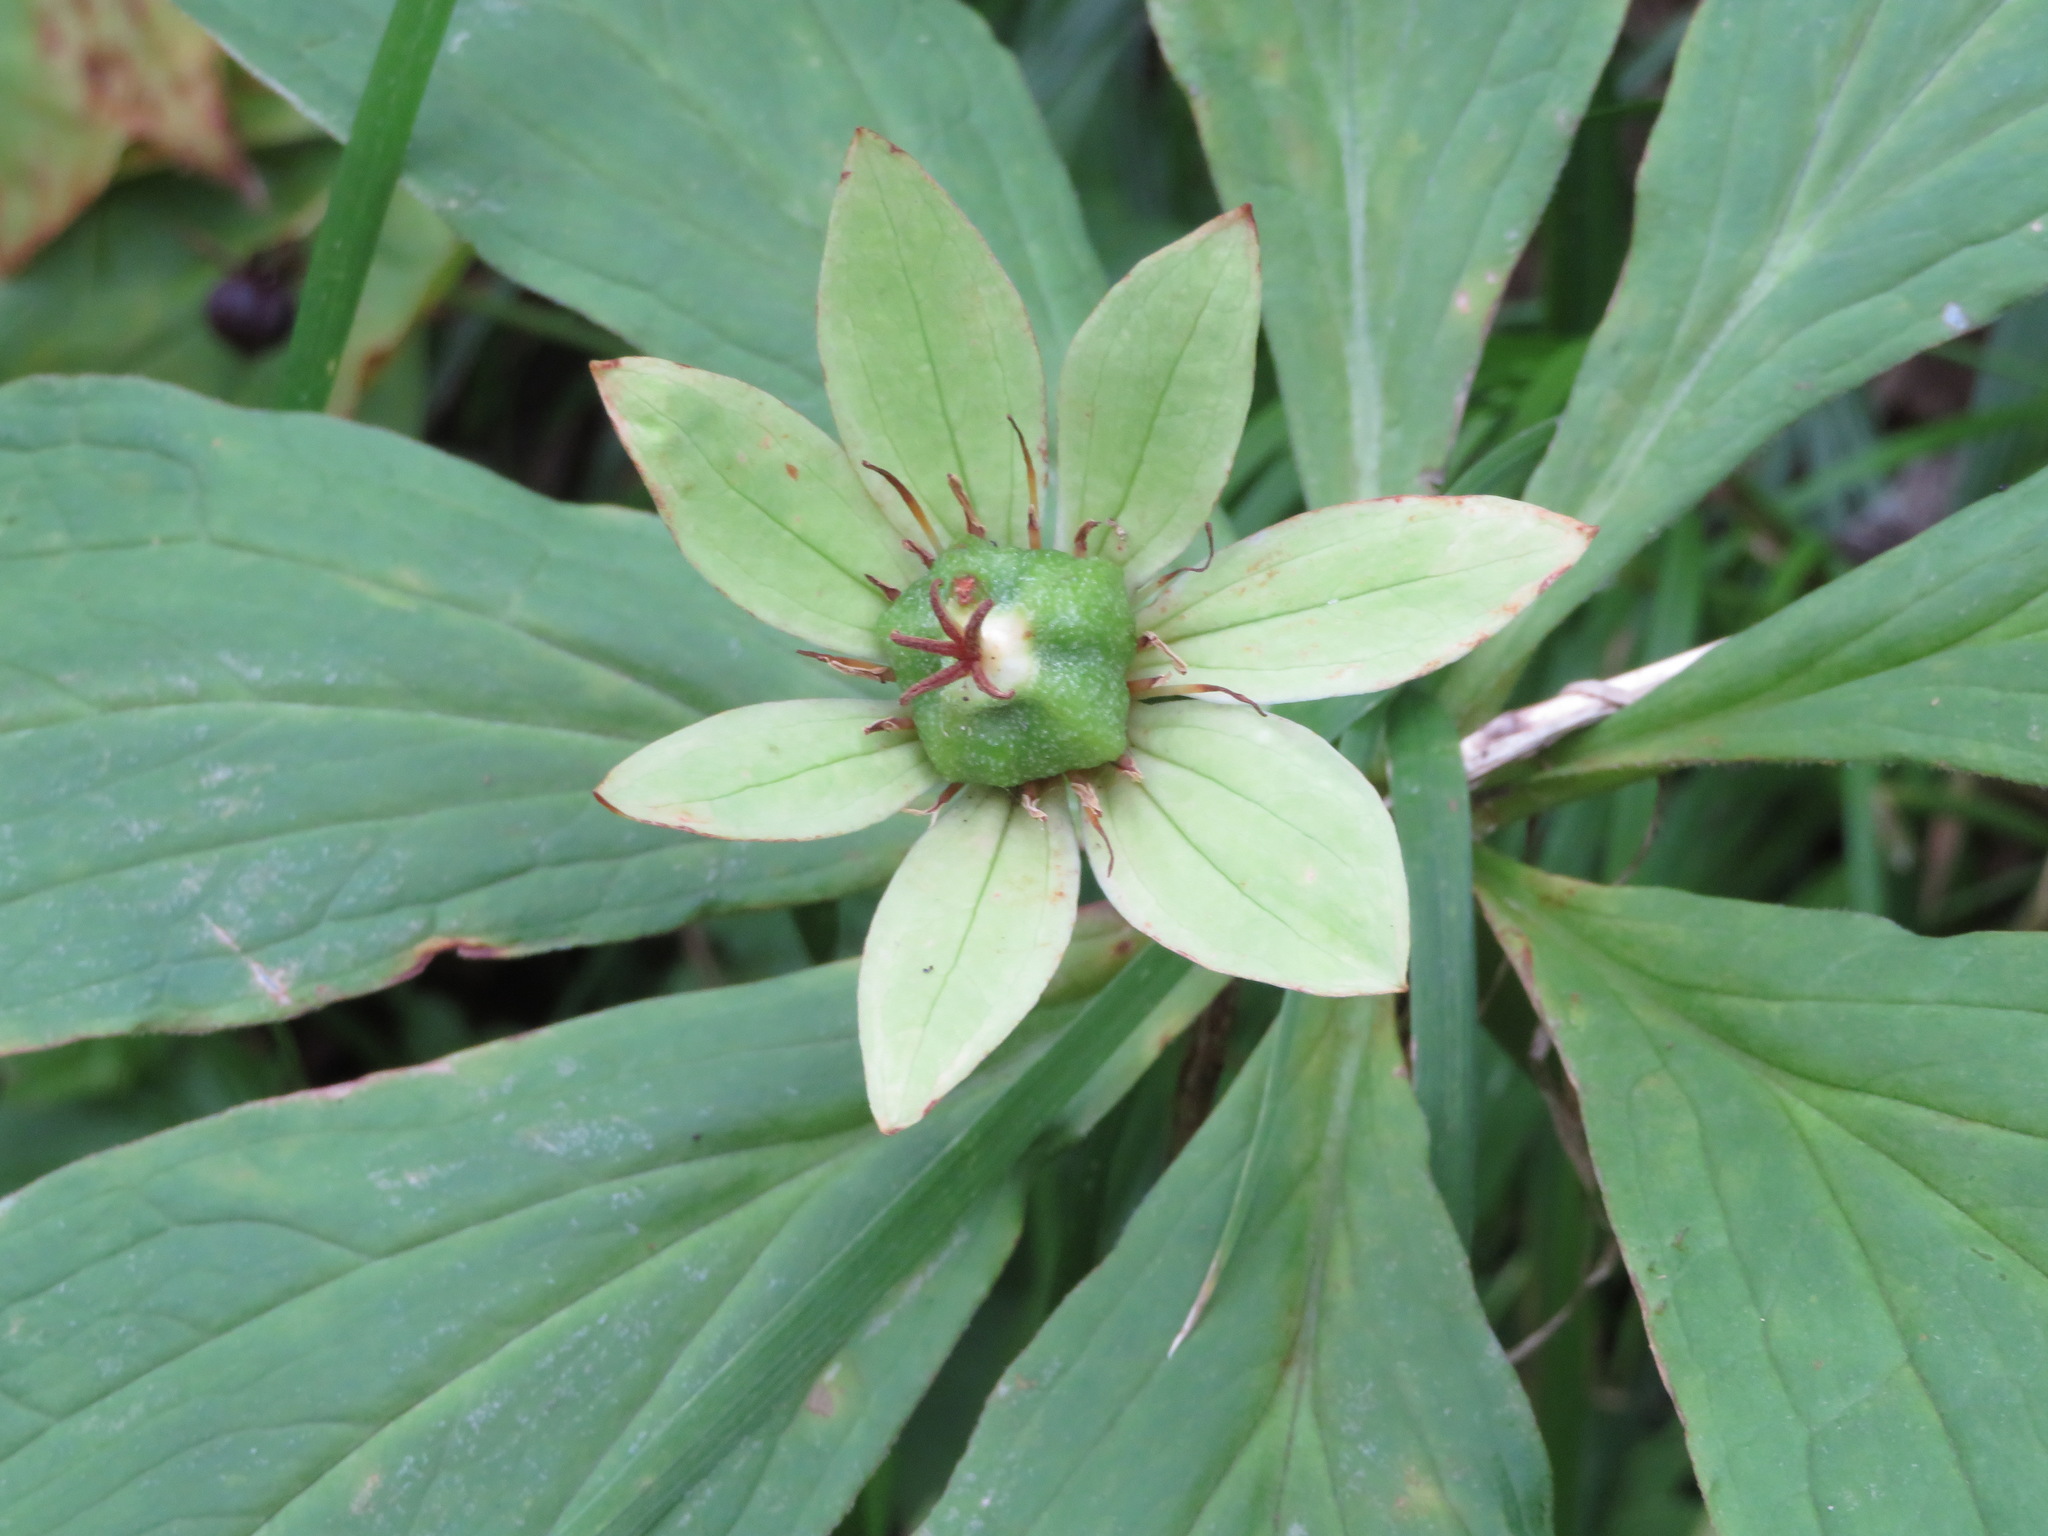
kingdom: Plantae
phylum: Tracheophyta
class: Liliopsida
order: Liliales
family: Melanthiaceae
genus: Paris
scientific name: Paris japonica
